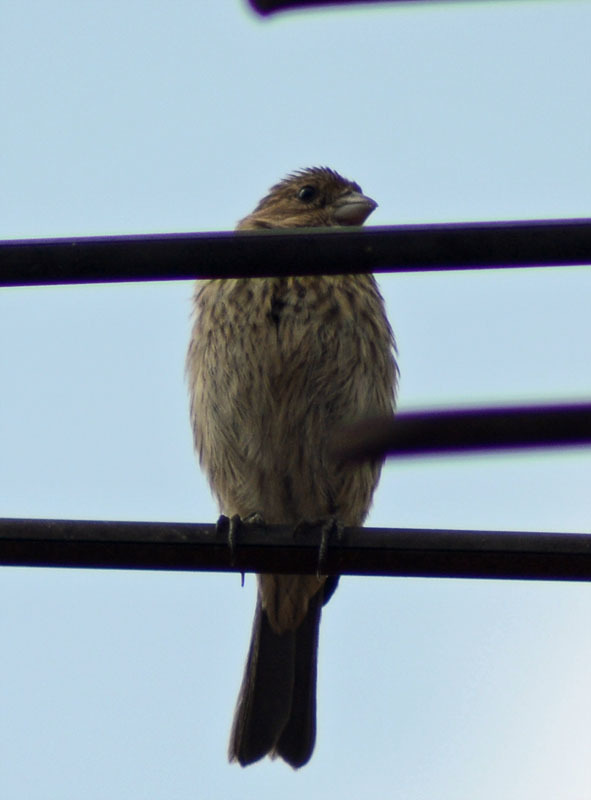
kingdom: Animalia
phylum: Chordata
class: Aves
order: Passeriformes
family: Fringillidae
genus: Haemorhous
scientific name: Haemorhous mexicanus
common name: House finch
